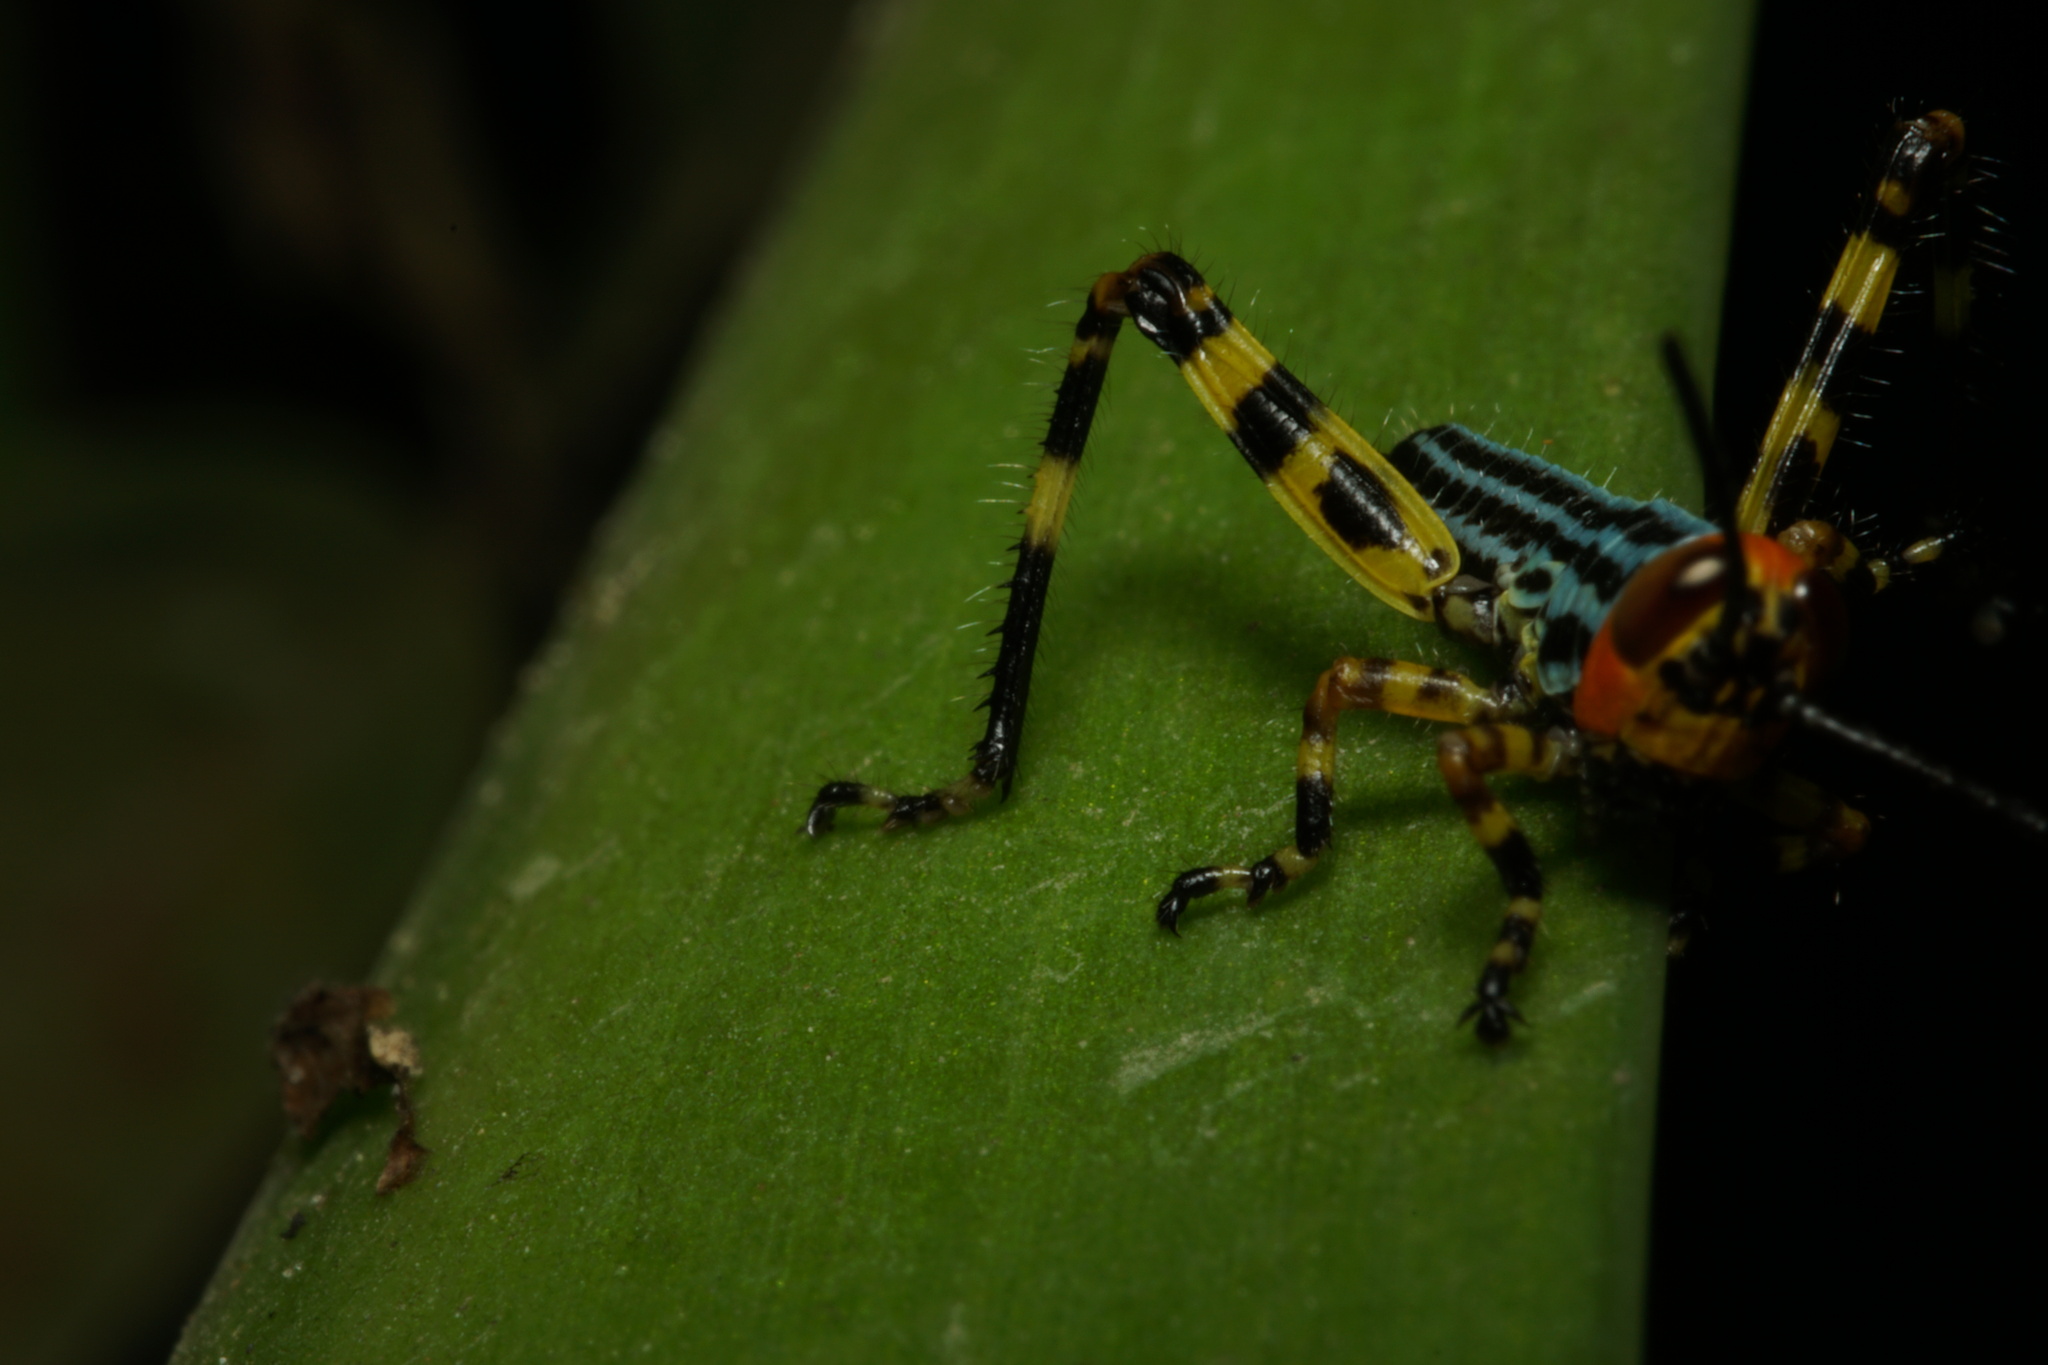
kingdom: Animalia
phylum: Arthropoda
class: Insecta
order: Orthoptera
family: Romaleidae
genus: Zoniopoda
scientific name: Zoniopoda tarsata
